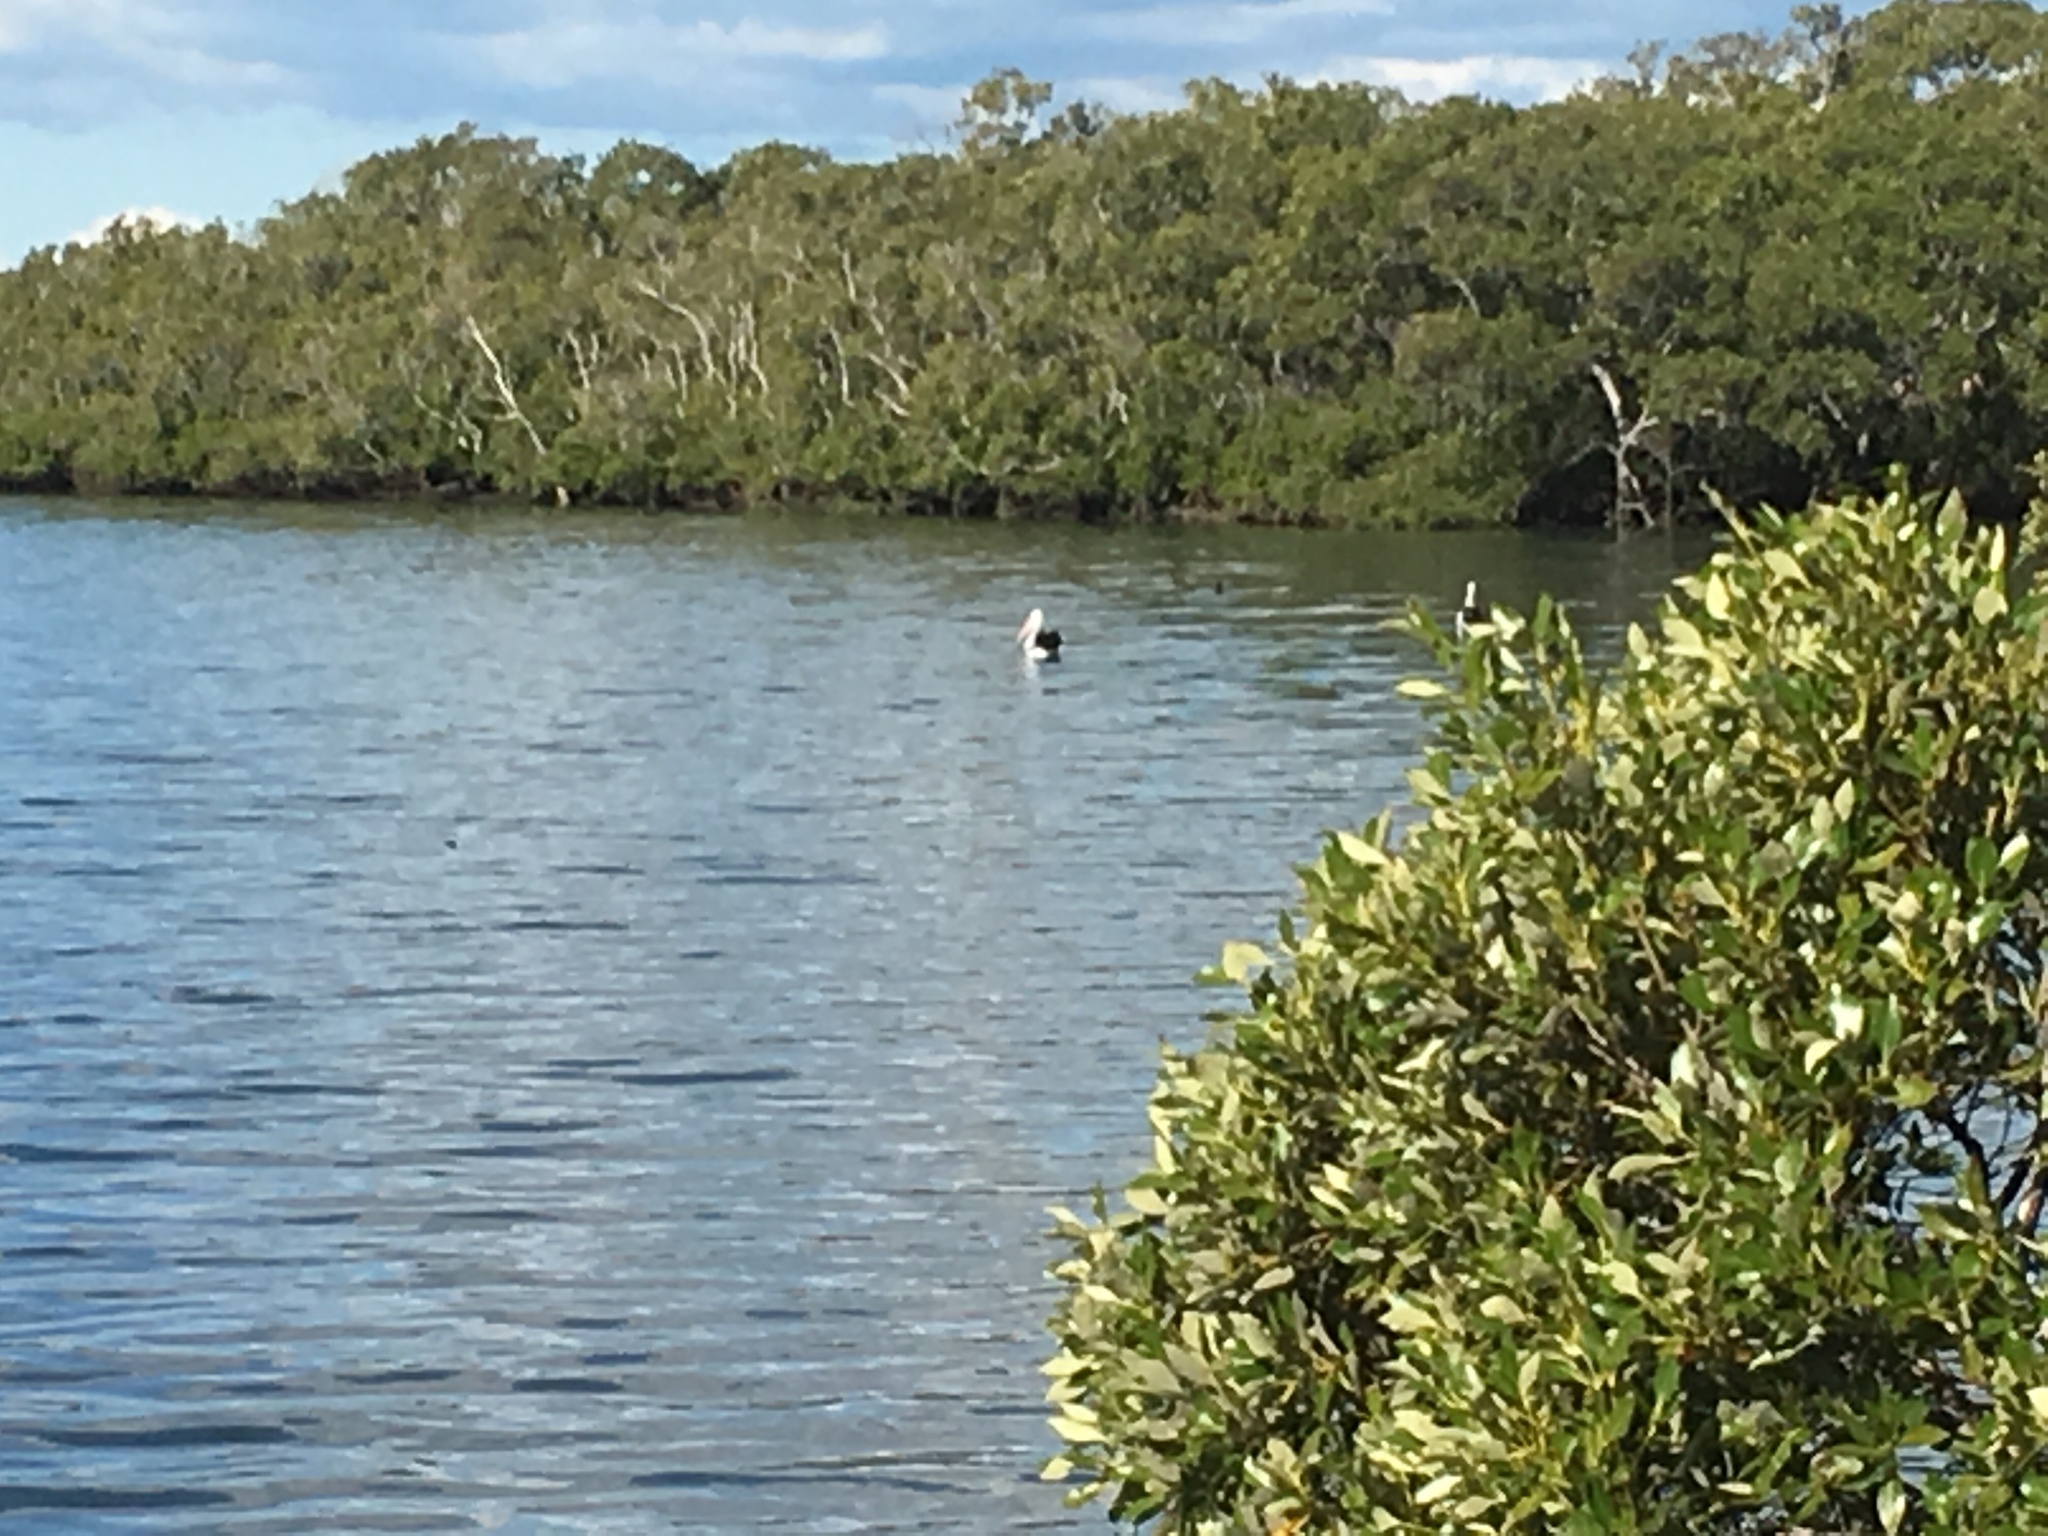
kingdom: Animalia
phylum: Chordata
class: Aves
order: Pelecaniformes
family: Pelecanidae
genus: Pelecanus
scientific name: Pelecanus conspicillatus
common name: Australian pelican
